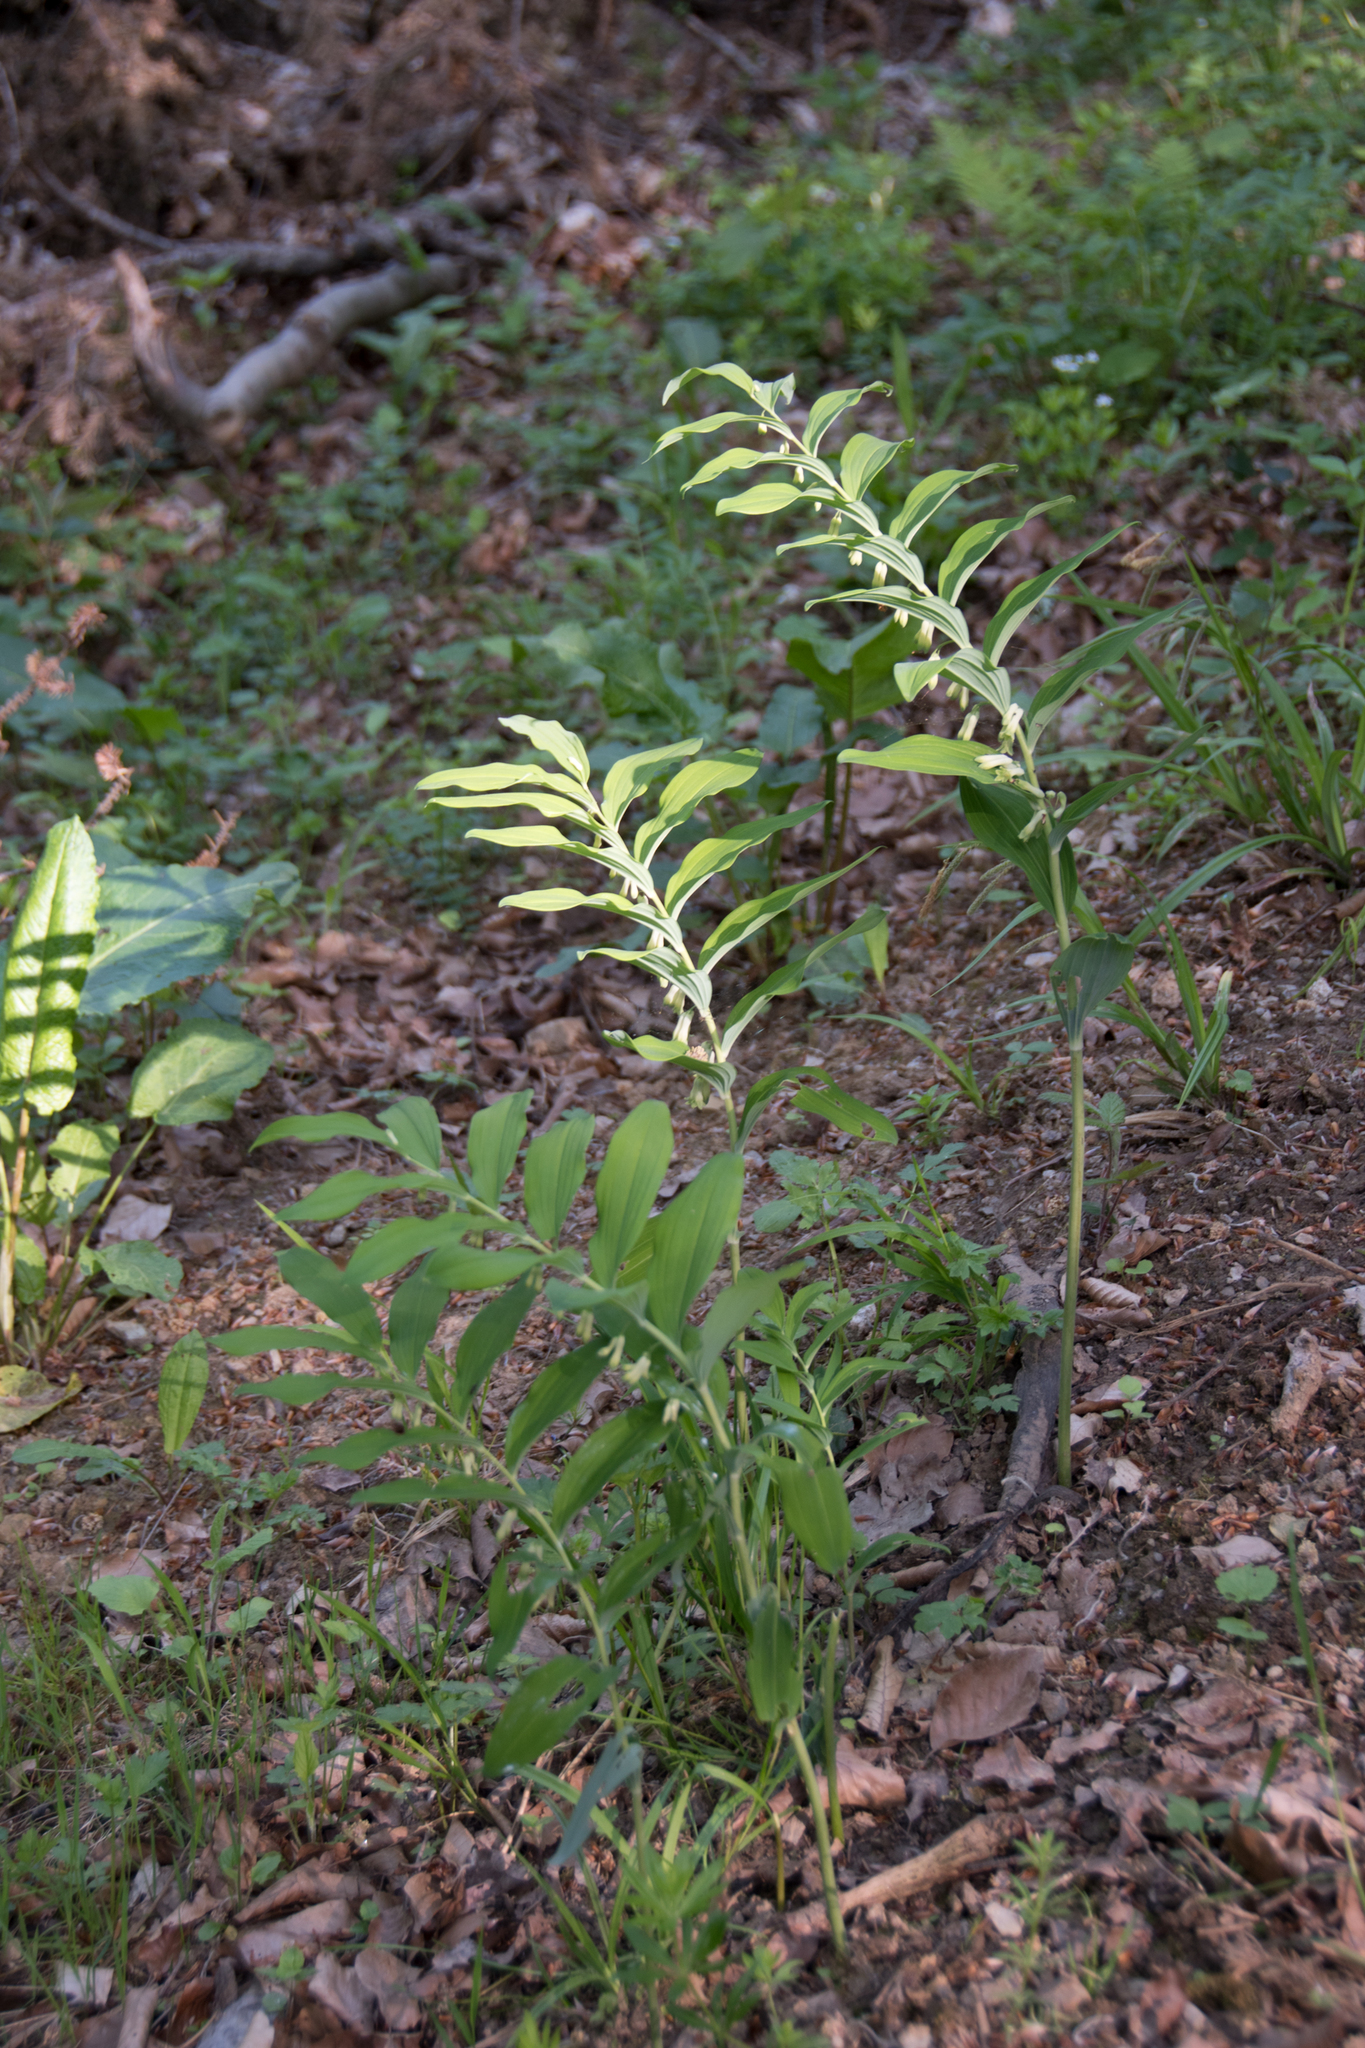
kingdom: Plantae
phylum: Tracheophyta
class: Liliopsida
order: Asparagales
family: Asparagaceae
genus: Polygonatum
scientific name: Polygonatum multiflorum
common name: Solomon's-seal
